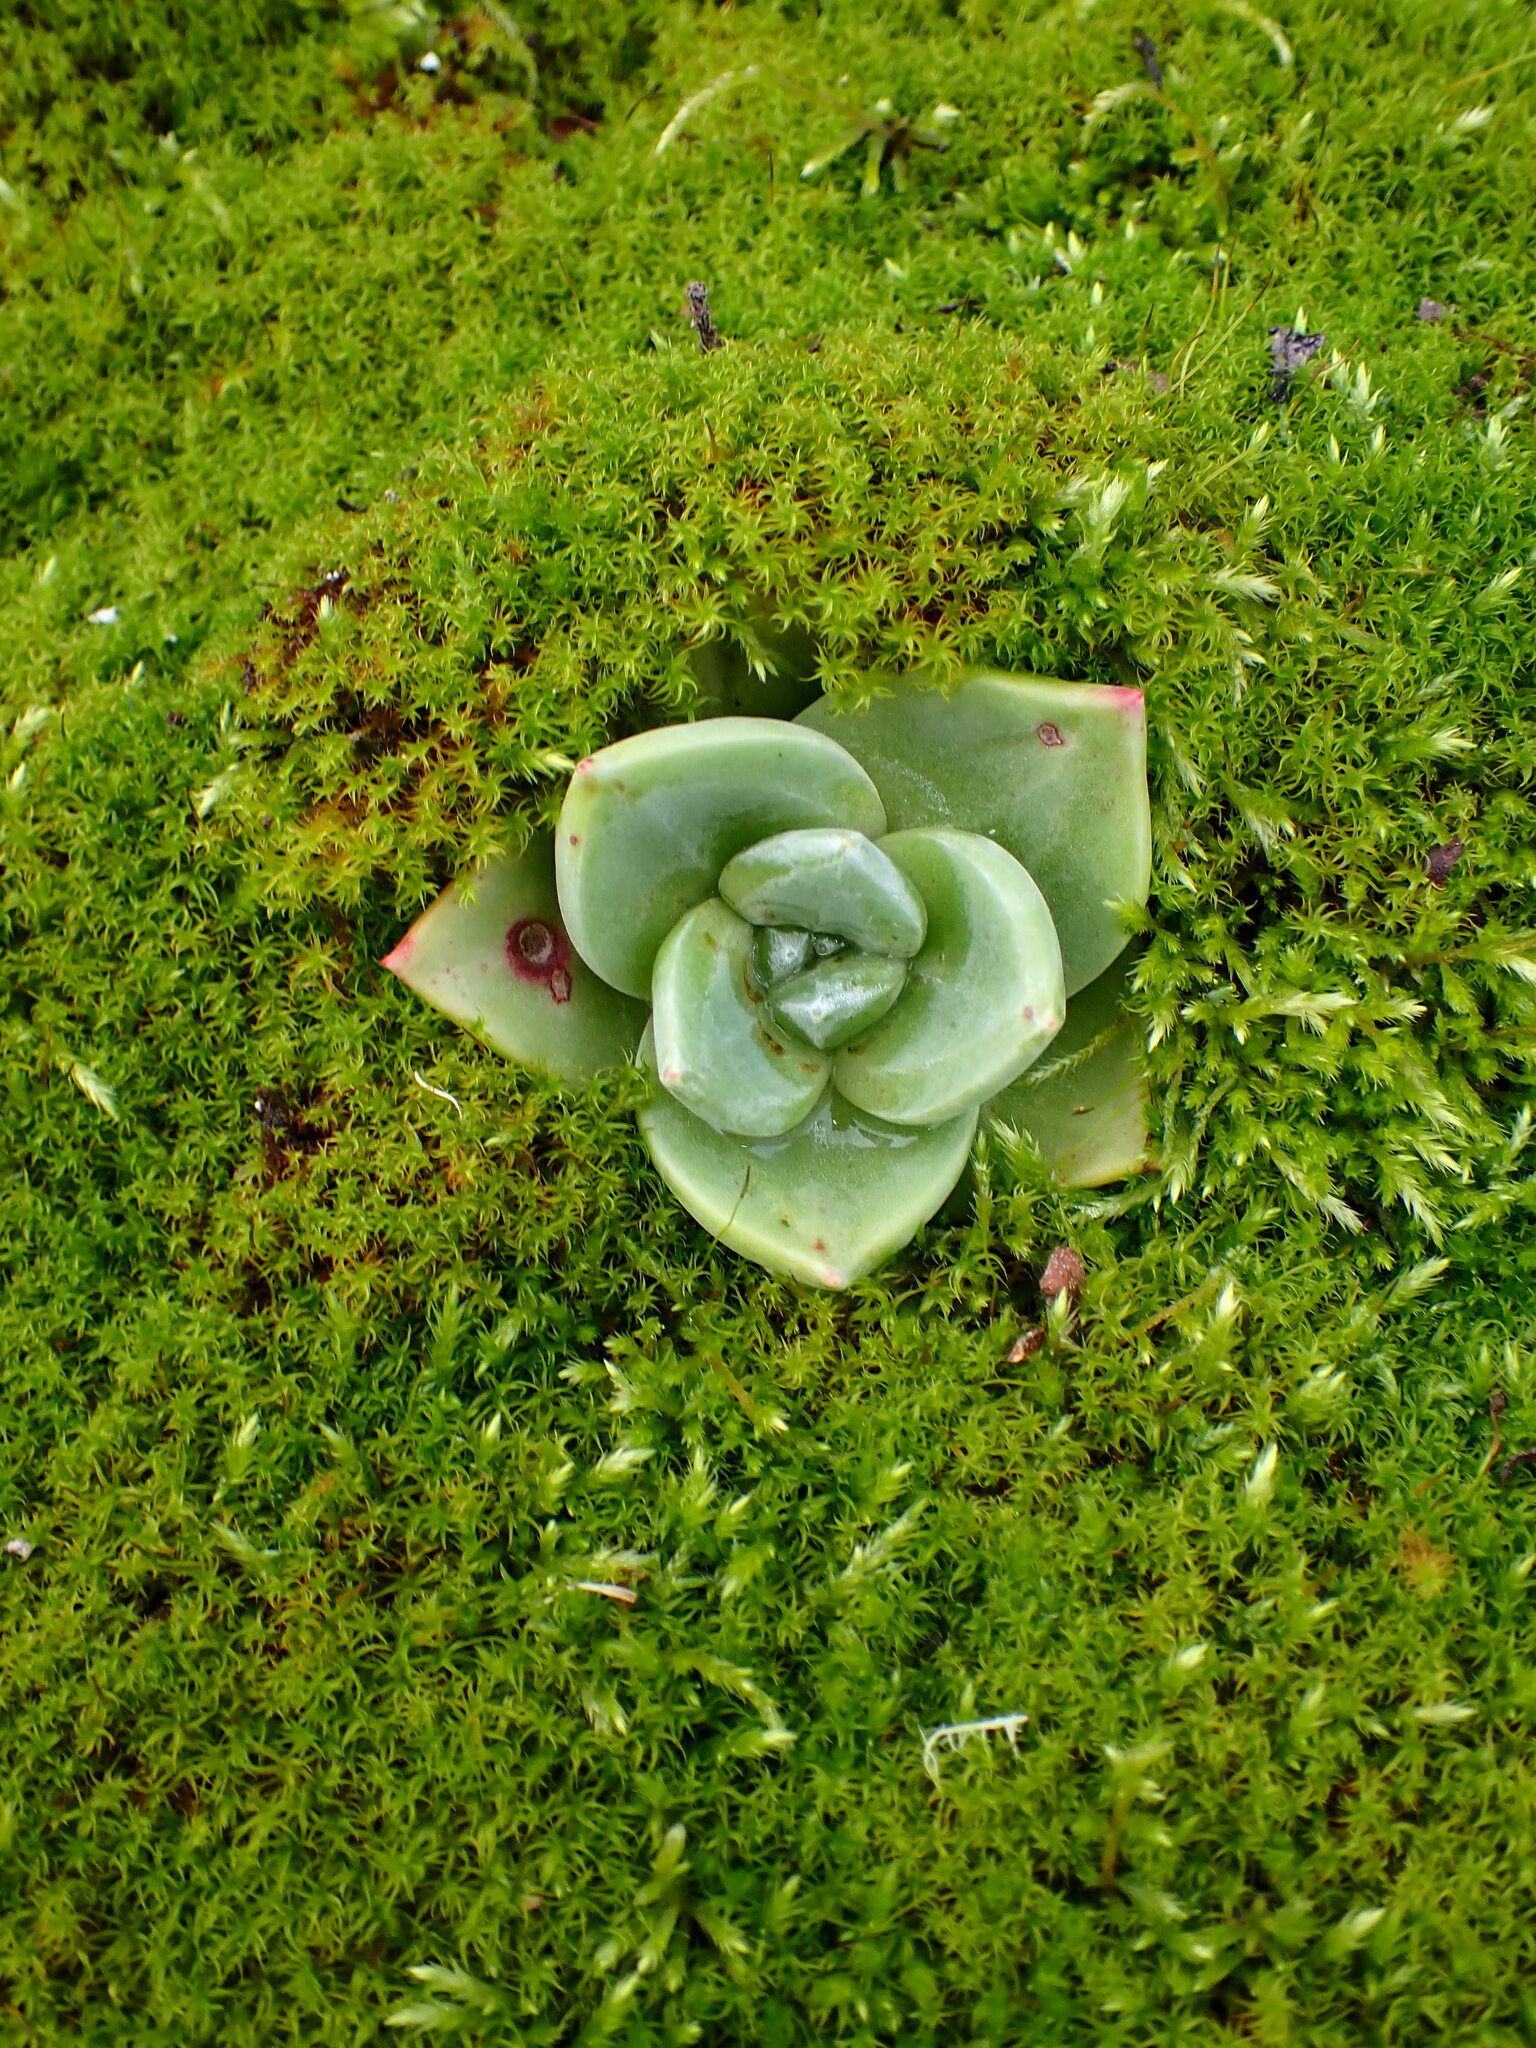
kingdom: Plantae
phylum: Tracheophyta
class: Magnoliopsida
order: Saxifragales
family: Crassulaceae
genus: Dudleya
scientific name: Dudleya farinosa
